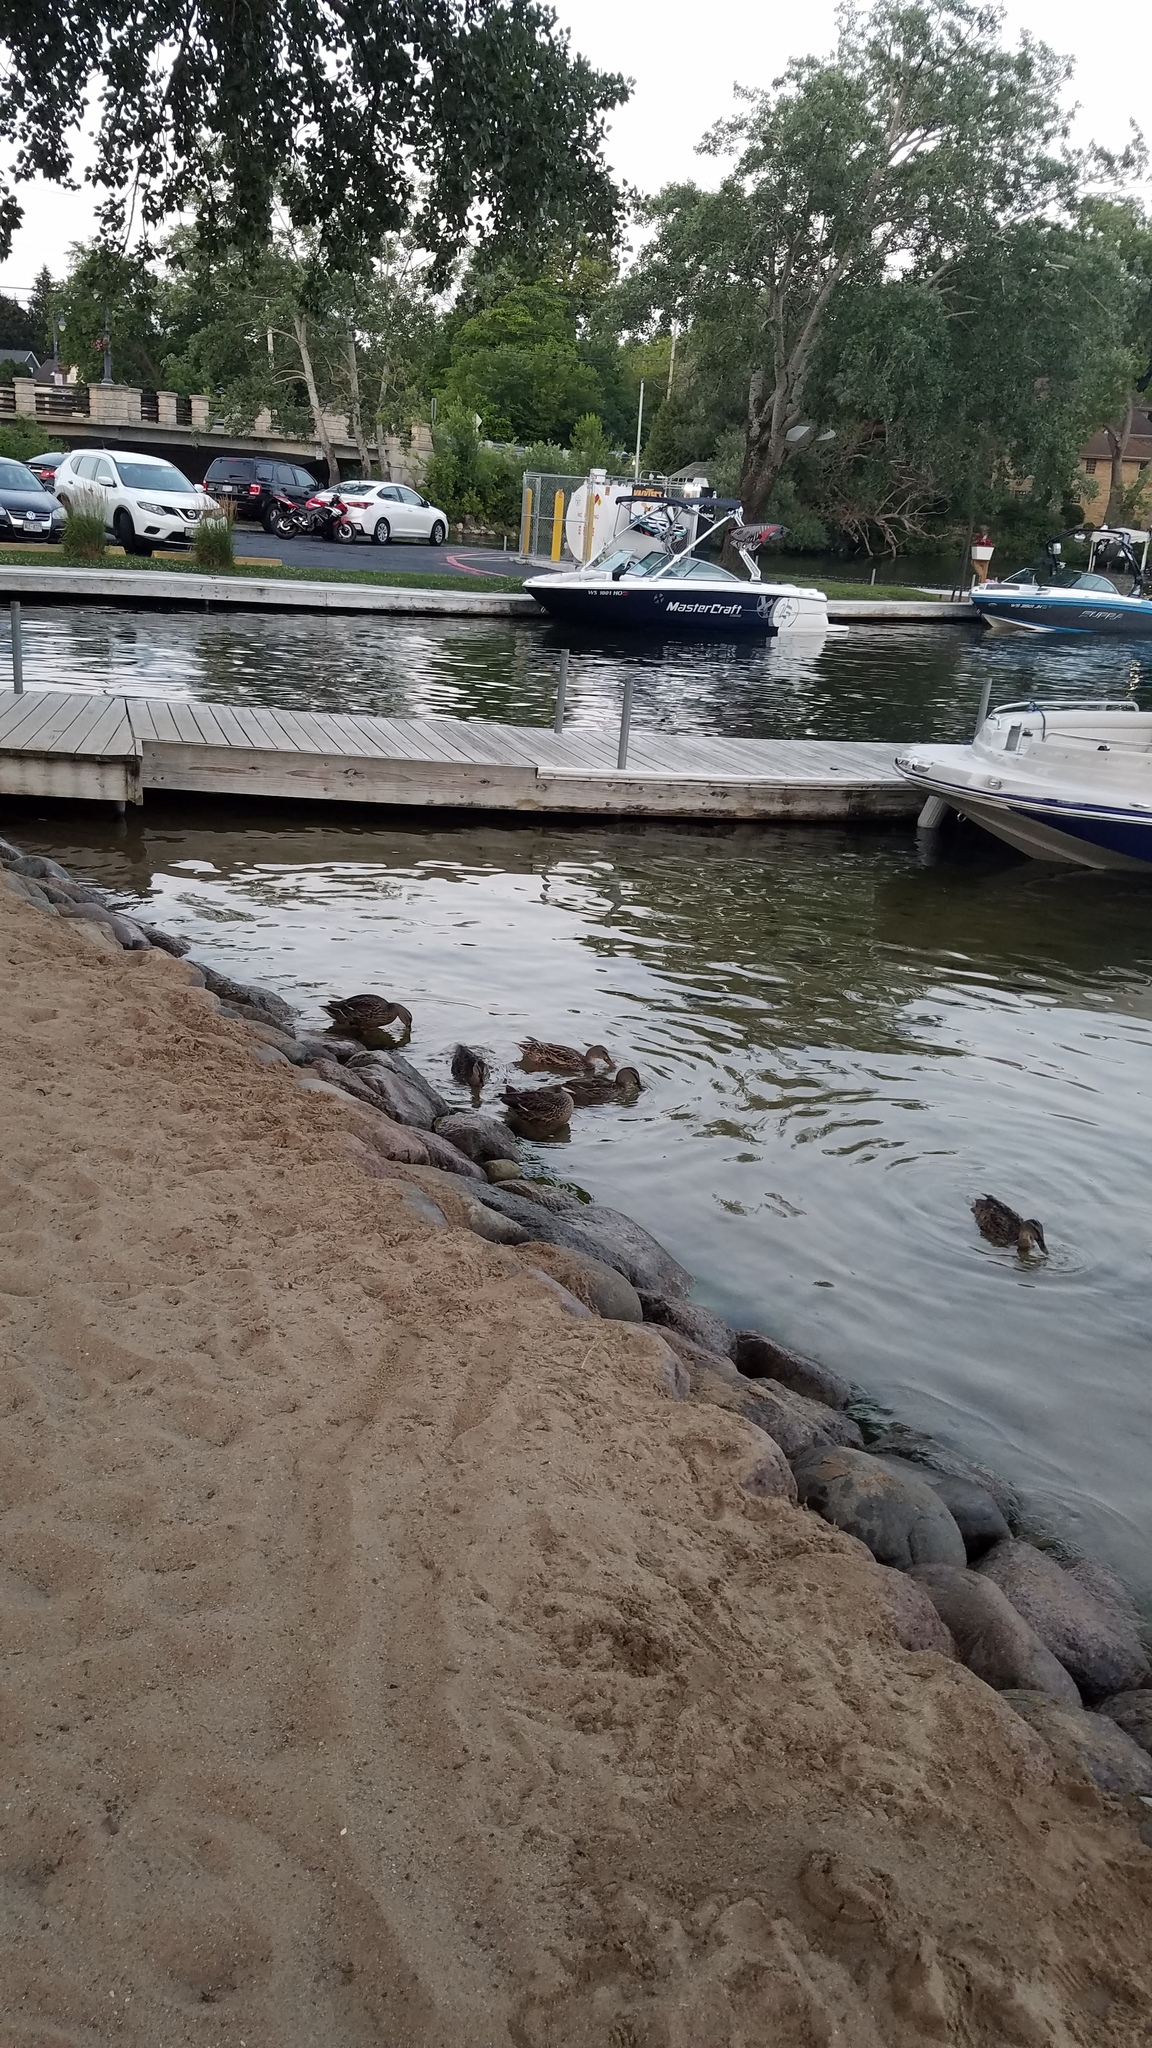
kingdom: Animalia
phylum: Chordata
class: Aves
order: Anseriformes
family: Anatidae
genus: Anas
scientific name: Anas platyrhynchos
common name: Mallard
